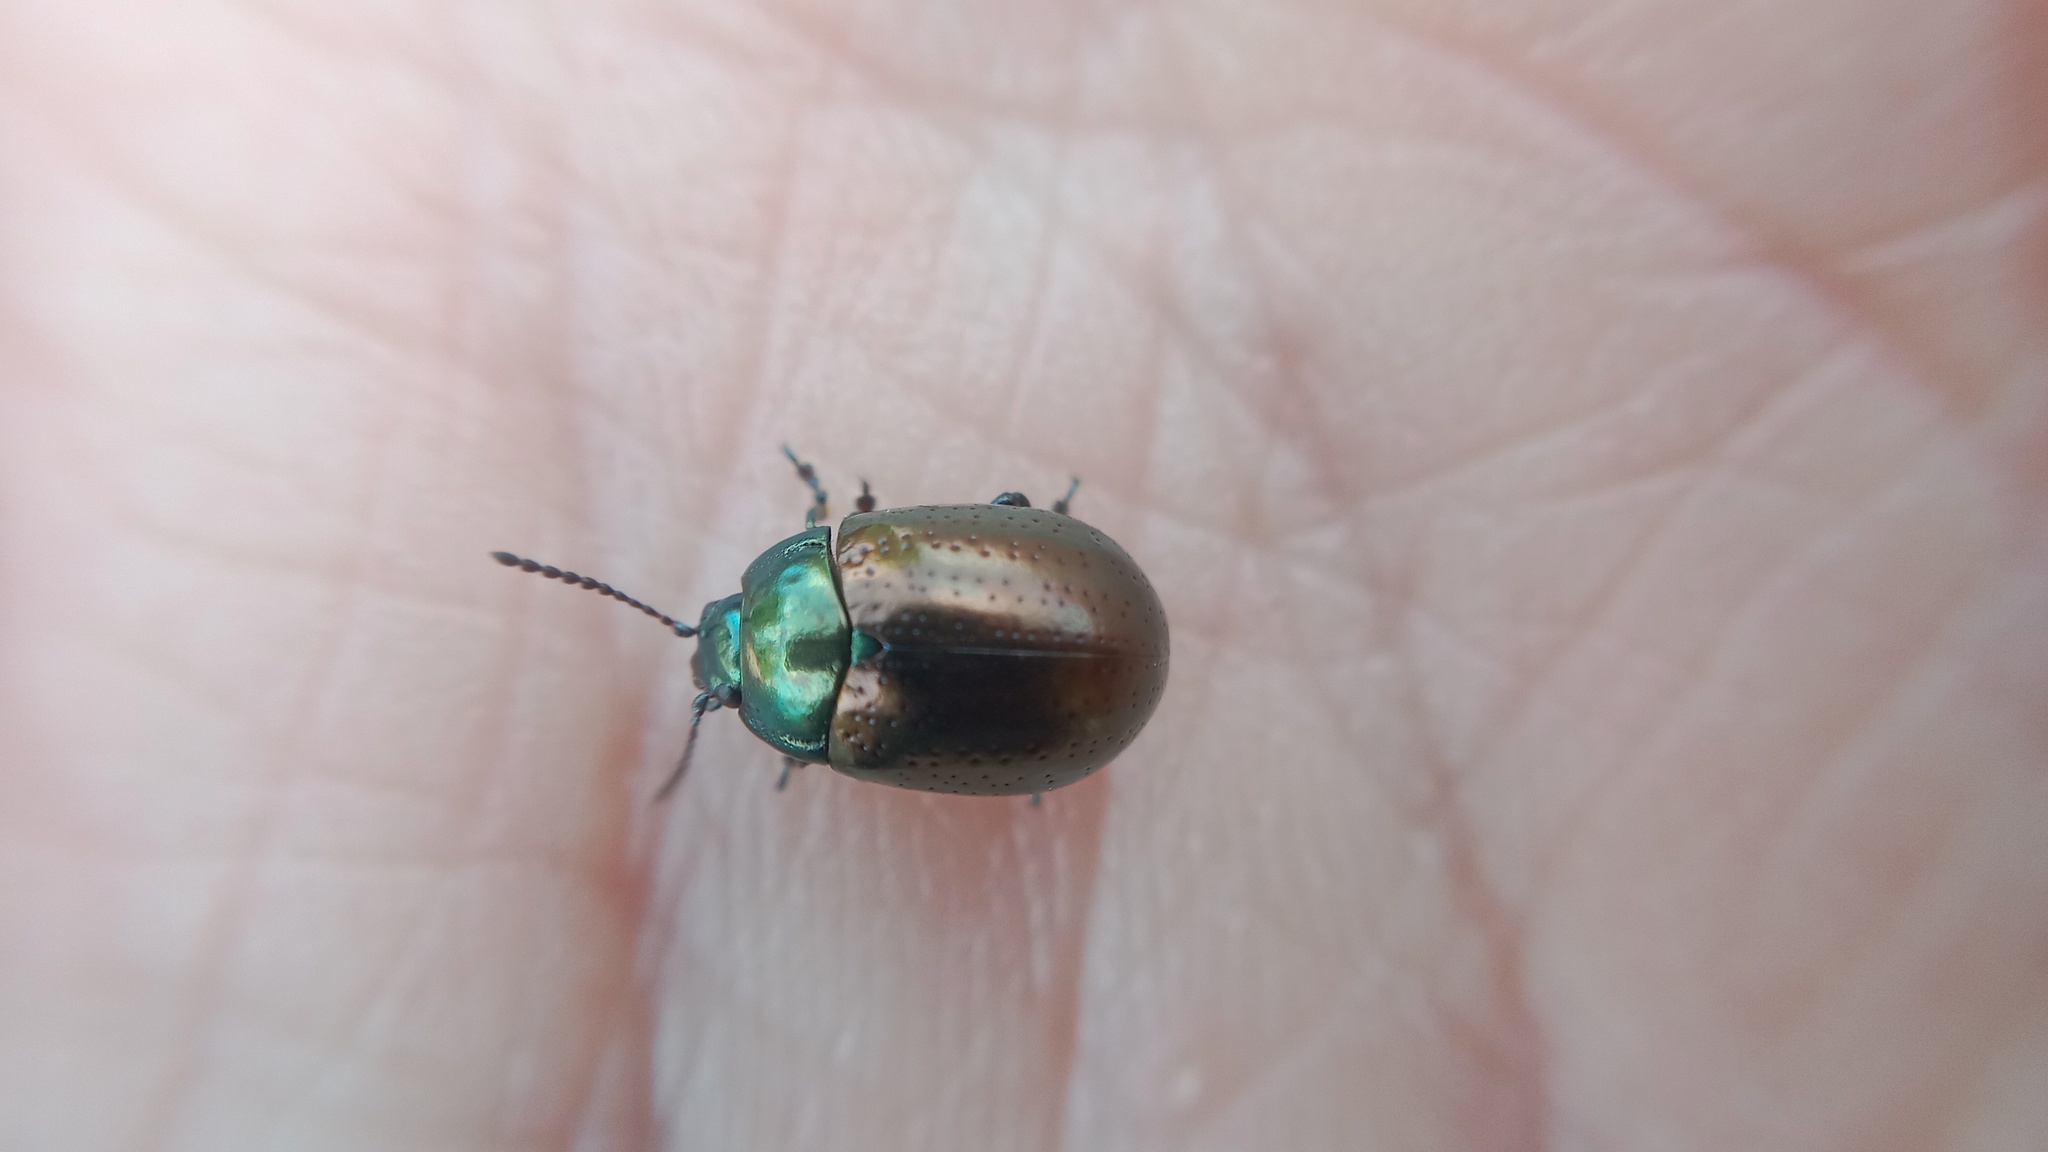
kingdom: Animalia
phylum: Arthropoda
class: Insecta
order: Coleoptera
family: Chrysomelidae
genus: Chrysolina
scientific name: Chrysolina hyperici
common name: St. johnswort beetle
